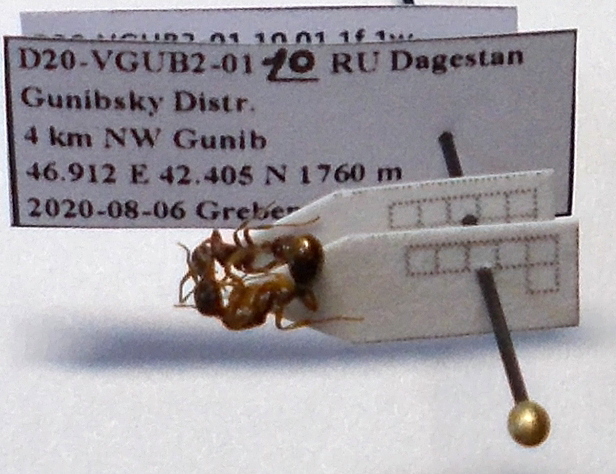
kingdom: Animalia
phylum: Arthropoda
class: Insecta
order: Hymenoptera
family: Formicidae
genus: Myrmica
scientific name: Myrmica ruginodis
